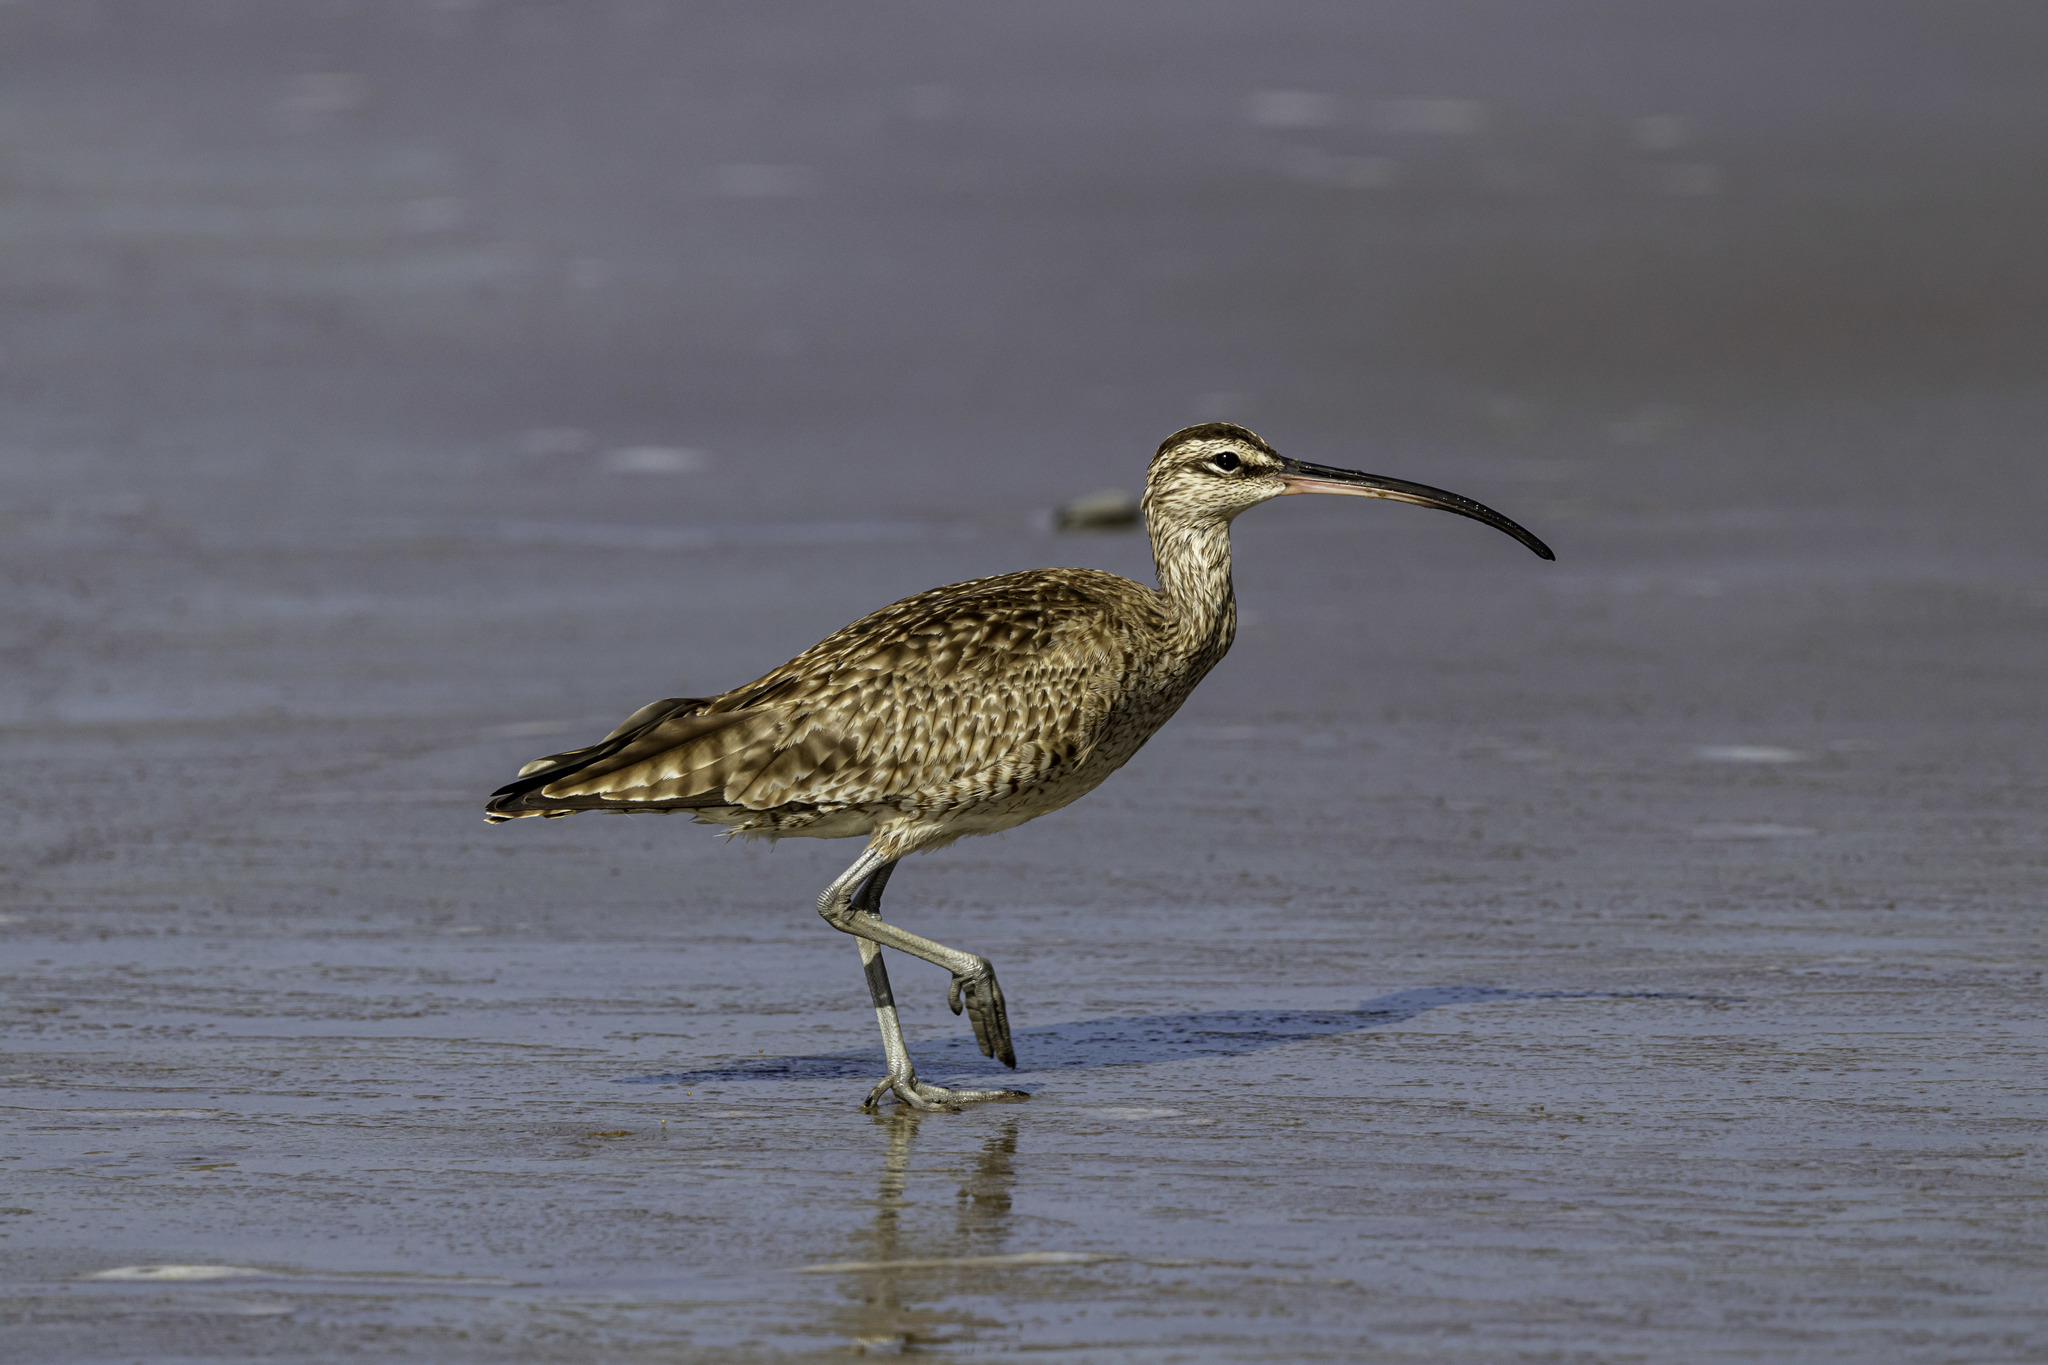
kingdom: Animalia
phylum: Chordata
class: Aves
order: Charadriiformes
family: Scolopacidae
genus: Numenius
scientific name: Numenius phaeopus
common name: Whimbrel
